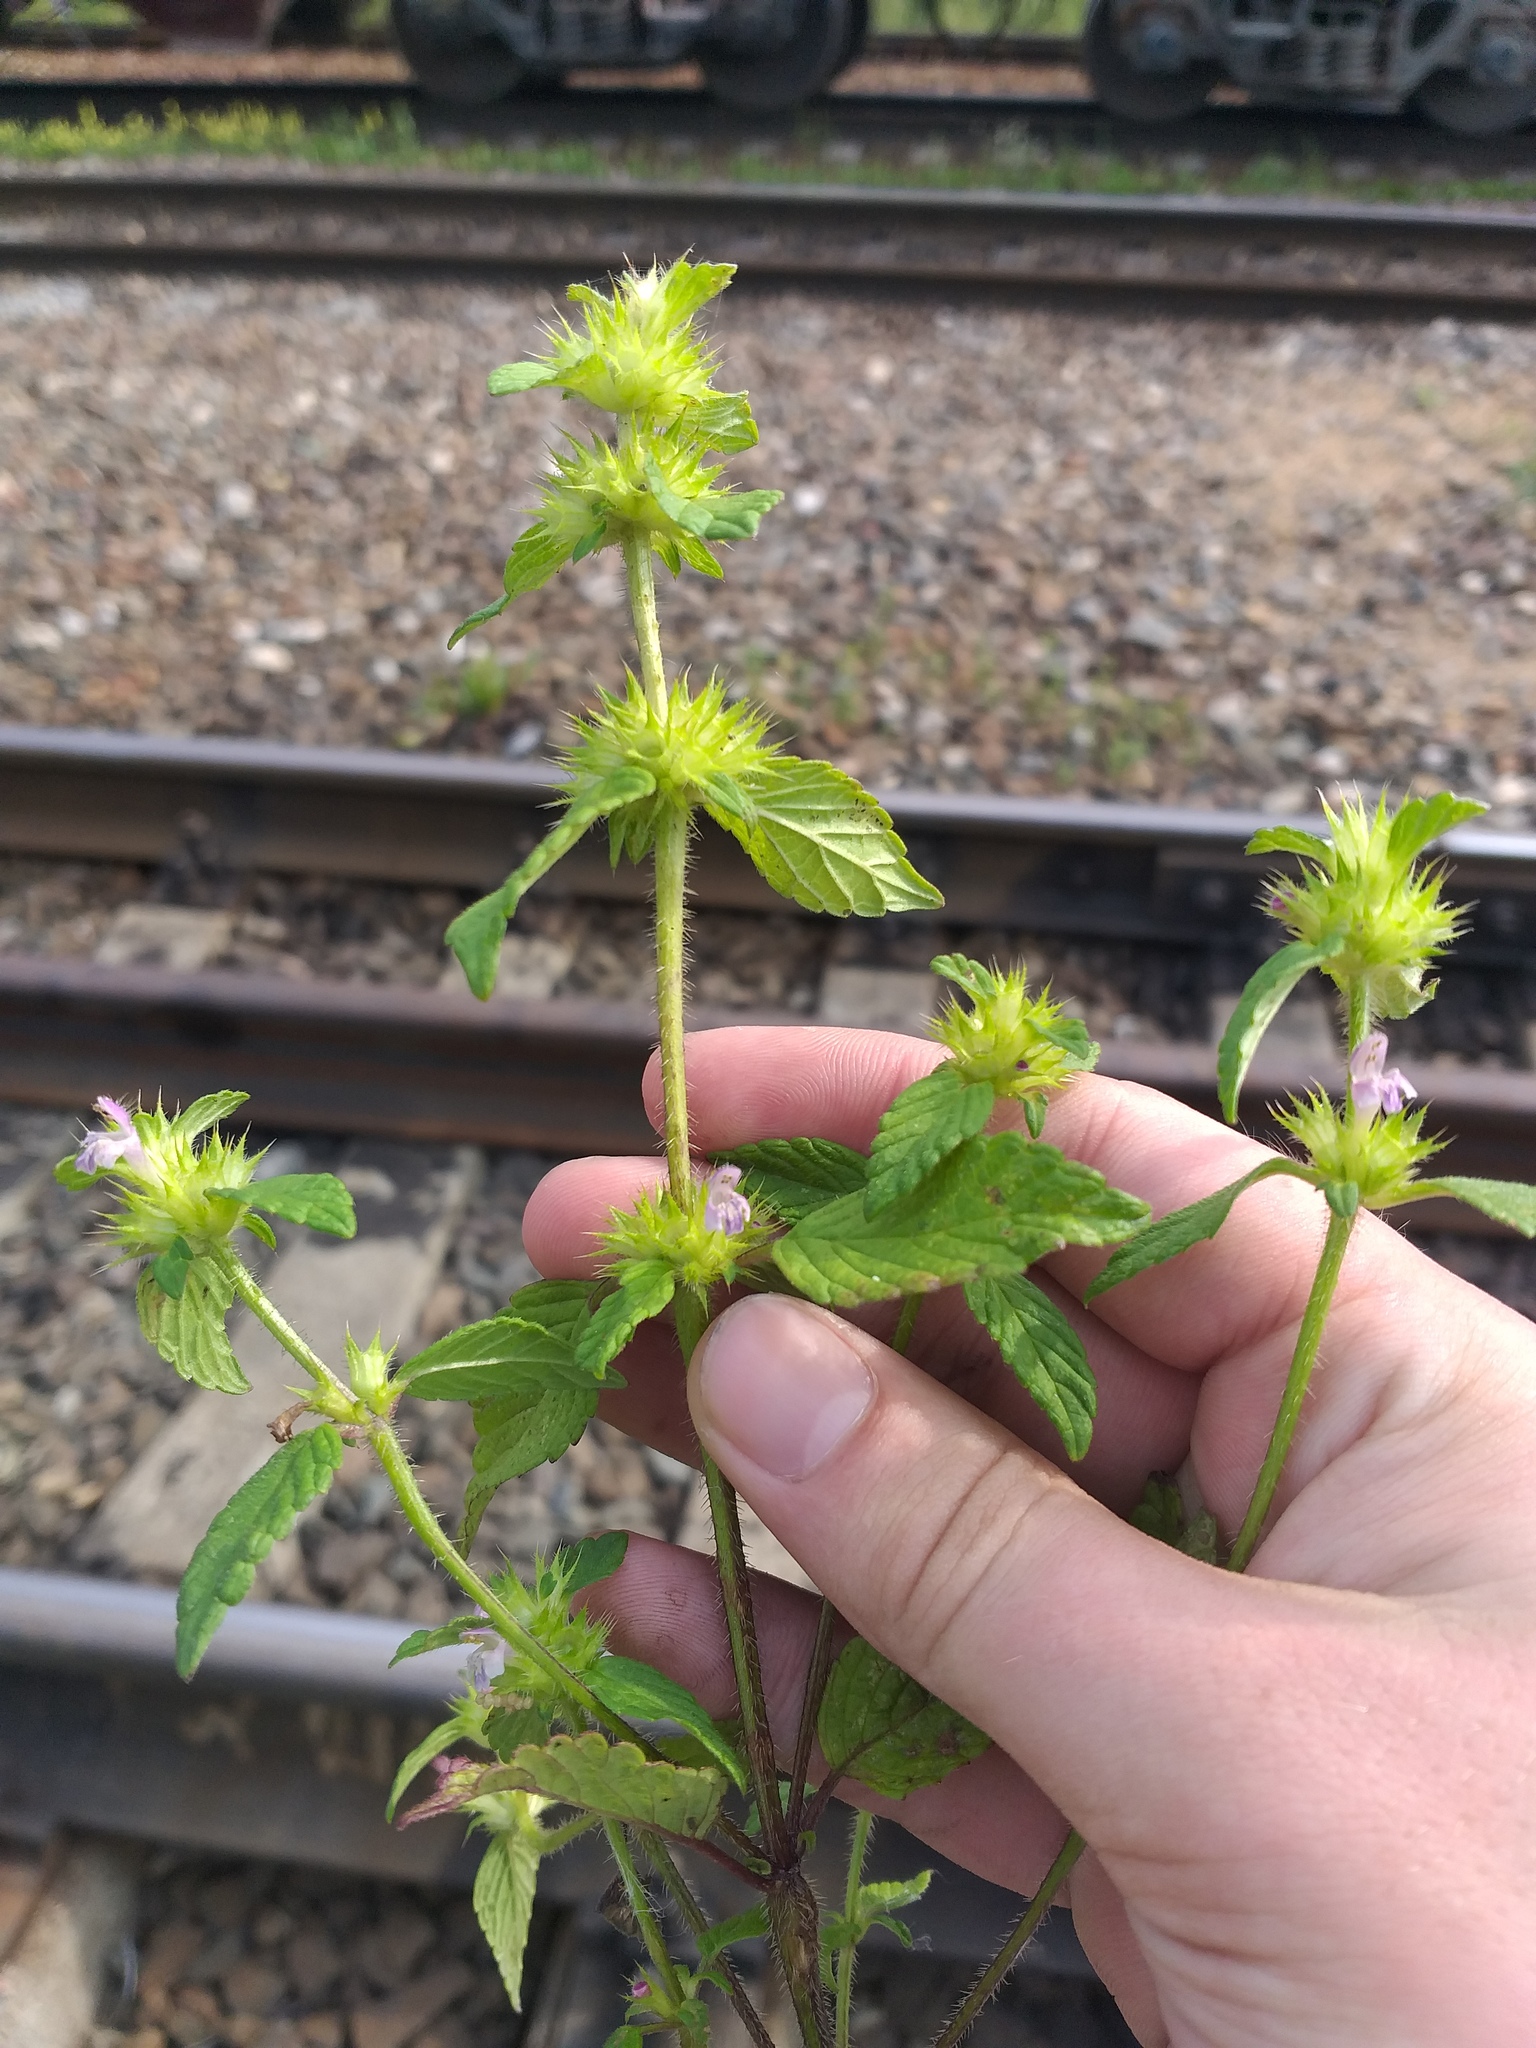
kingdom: Plantae
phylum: Tracheophyta
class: Magnoliopsida
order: Lamiales
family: Lamiaceae
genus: Galeopsis
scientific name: Galeopsis bifida
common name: Bifid hemp-nettle
